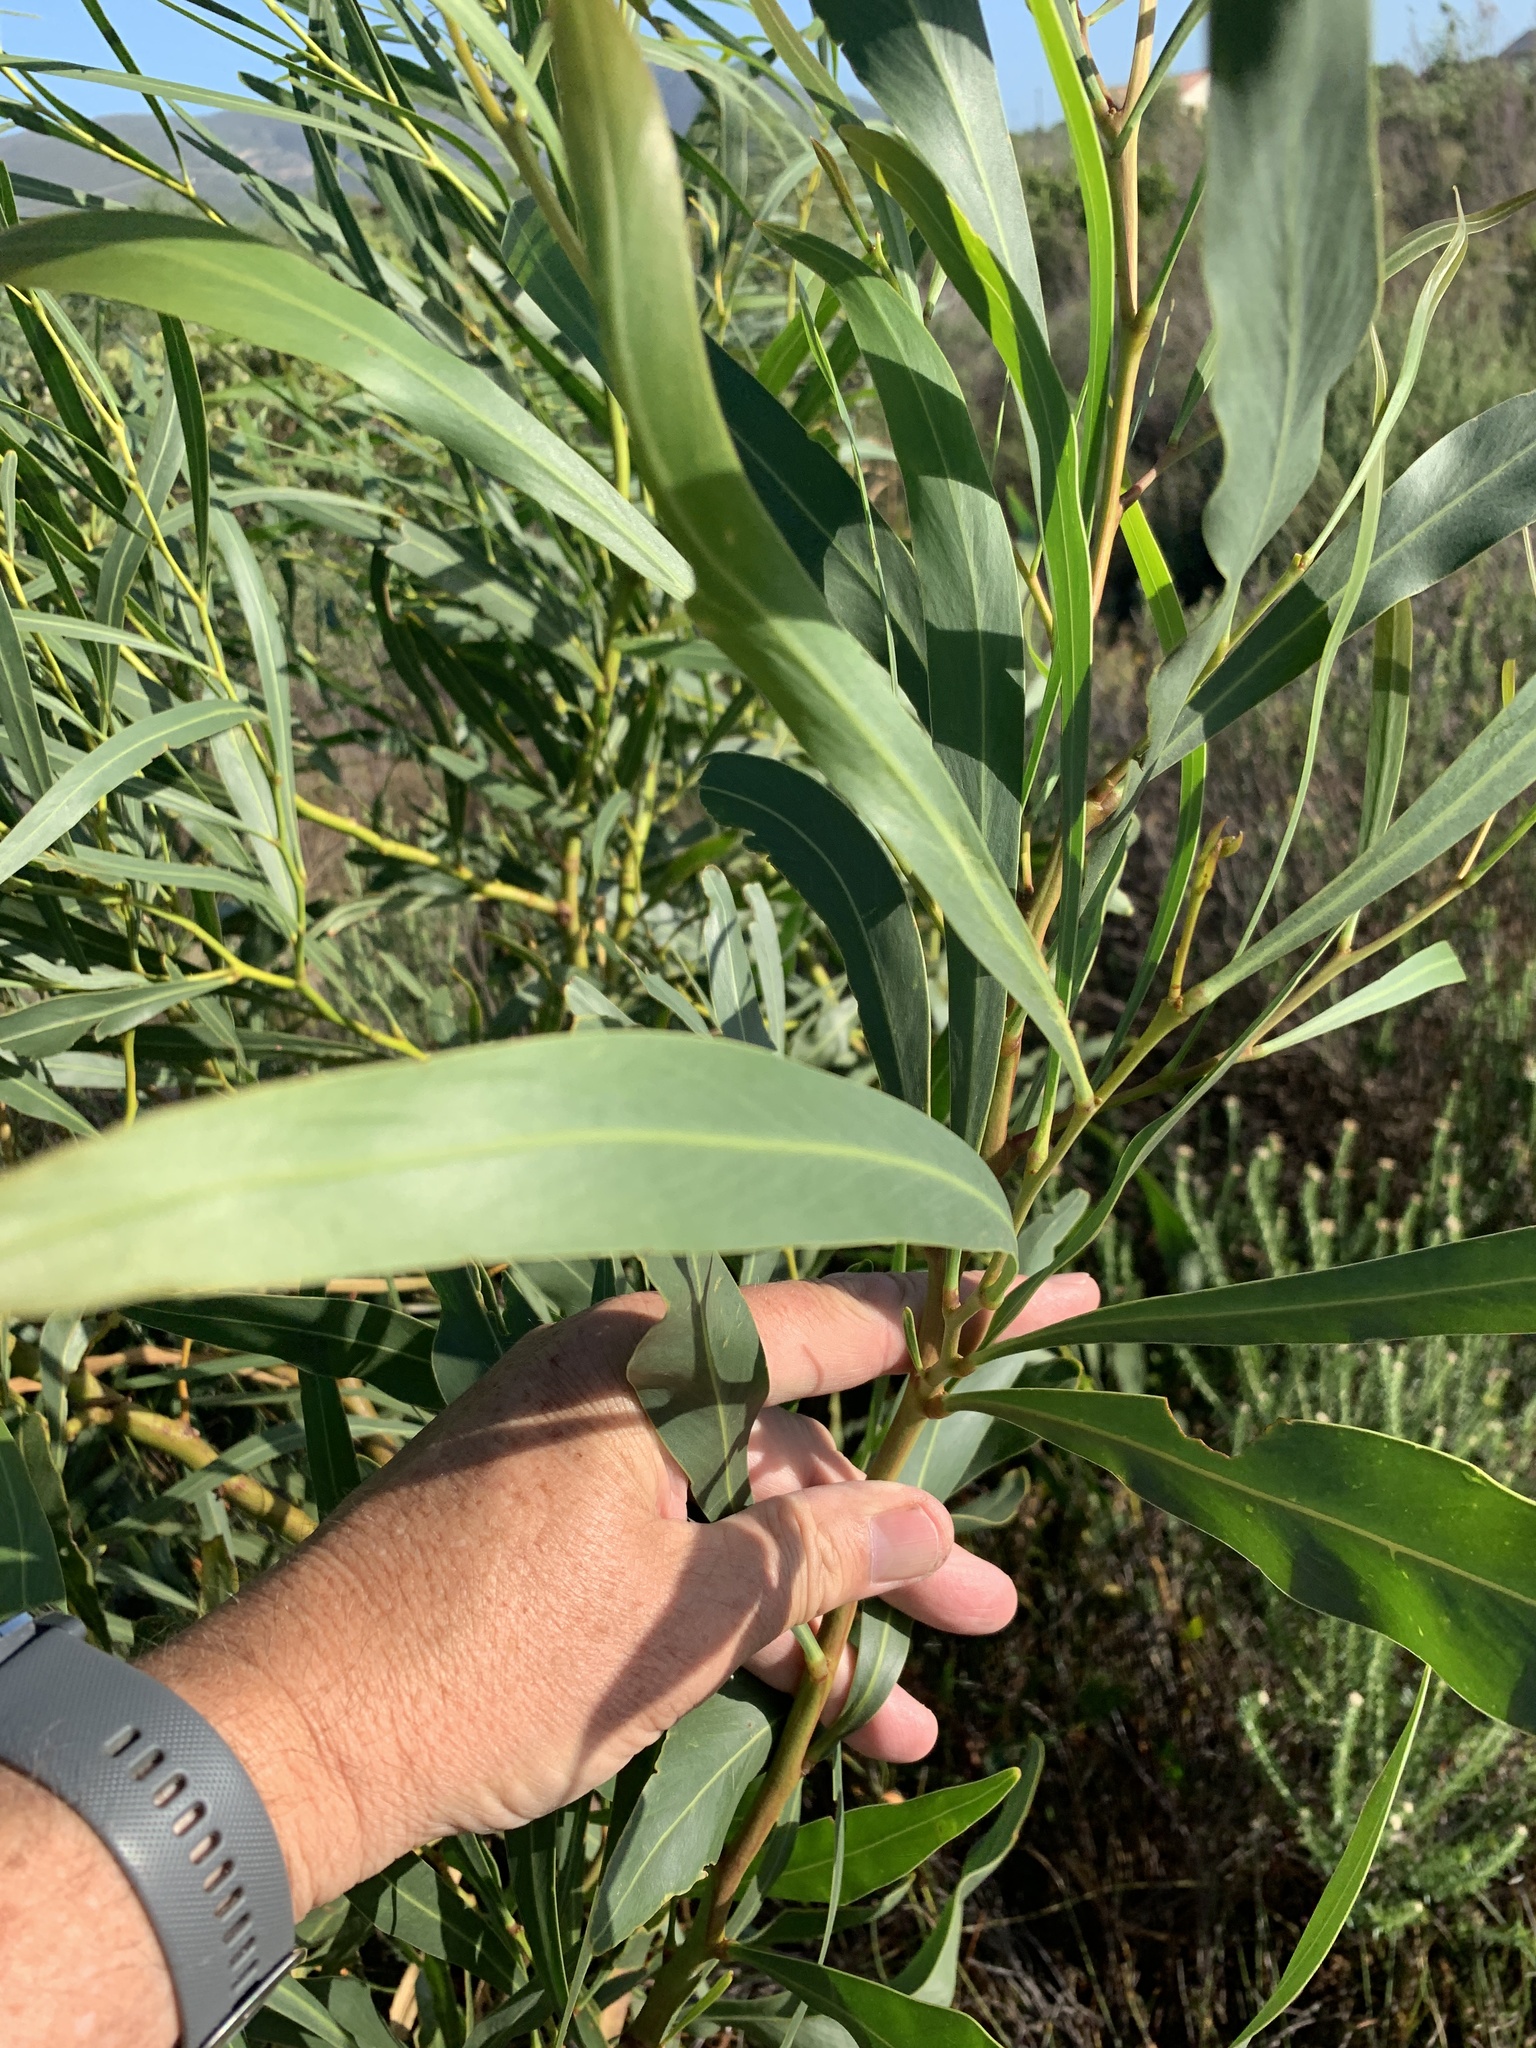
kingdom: Plantae
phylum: Tracheophyta
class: Magnoliopsida
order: Fabales
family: Fabaceae
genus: Acacia
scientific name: Acacia saligna
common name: Orange wattle
